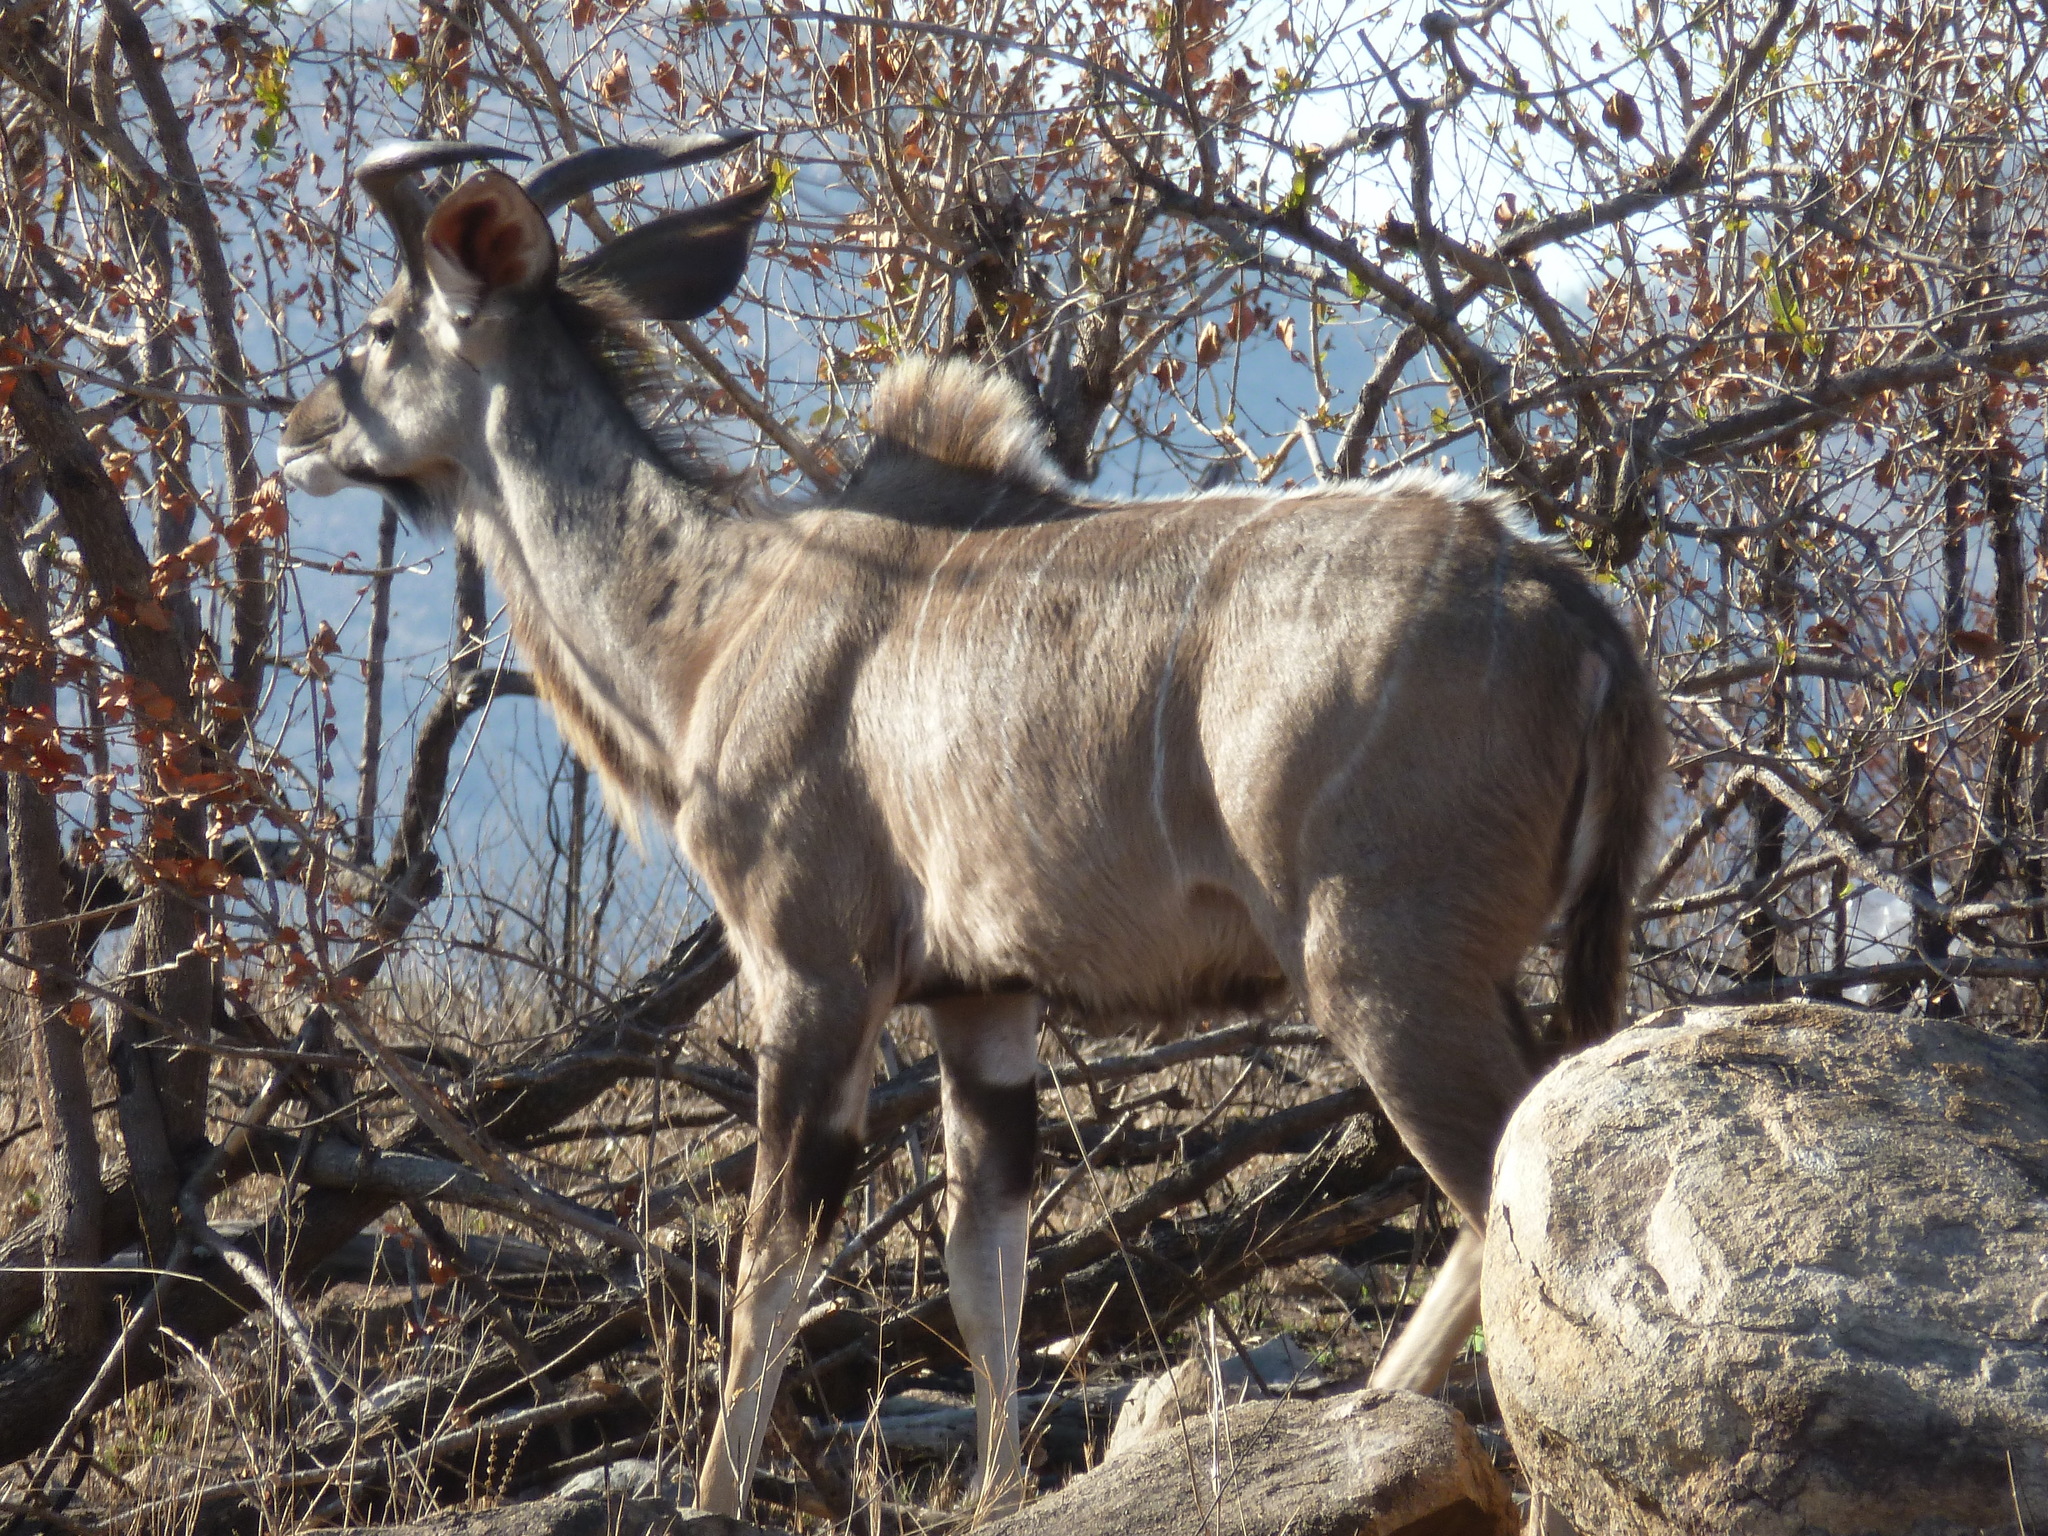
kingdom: Animalia
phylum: Chordata
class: Mammalia
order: Artiodactyla
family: Bovidae
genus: Tragelaphus
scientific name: Tragelaphus strepsiceros
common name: Greater kudu
